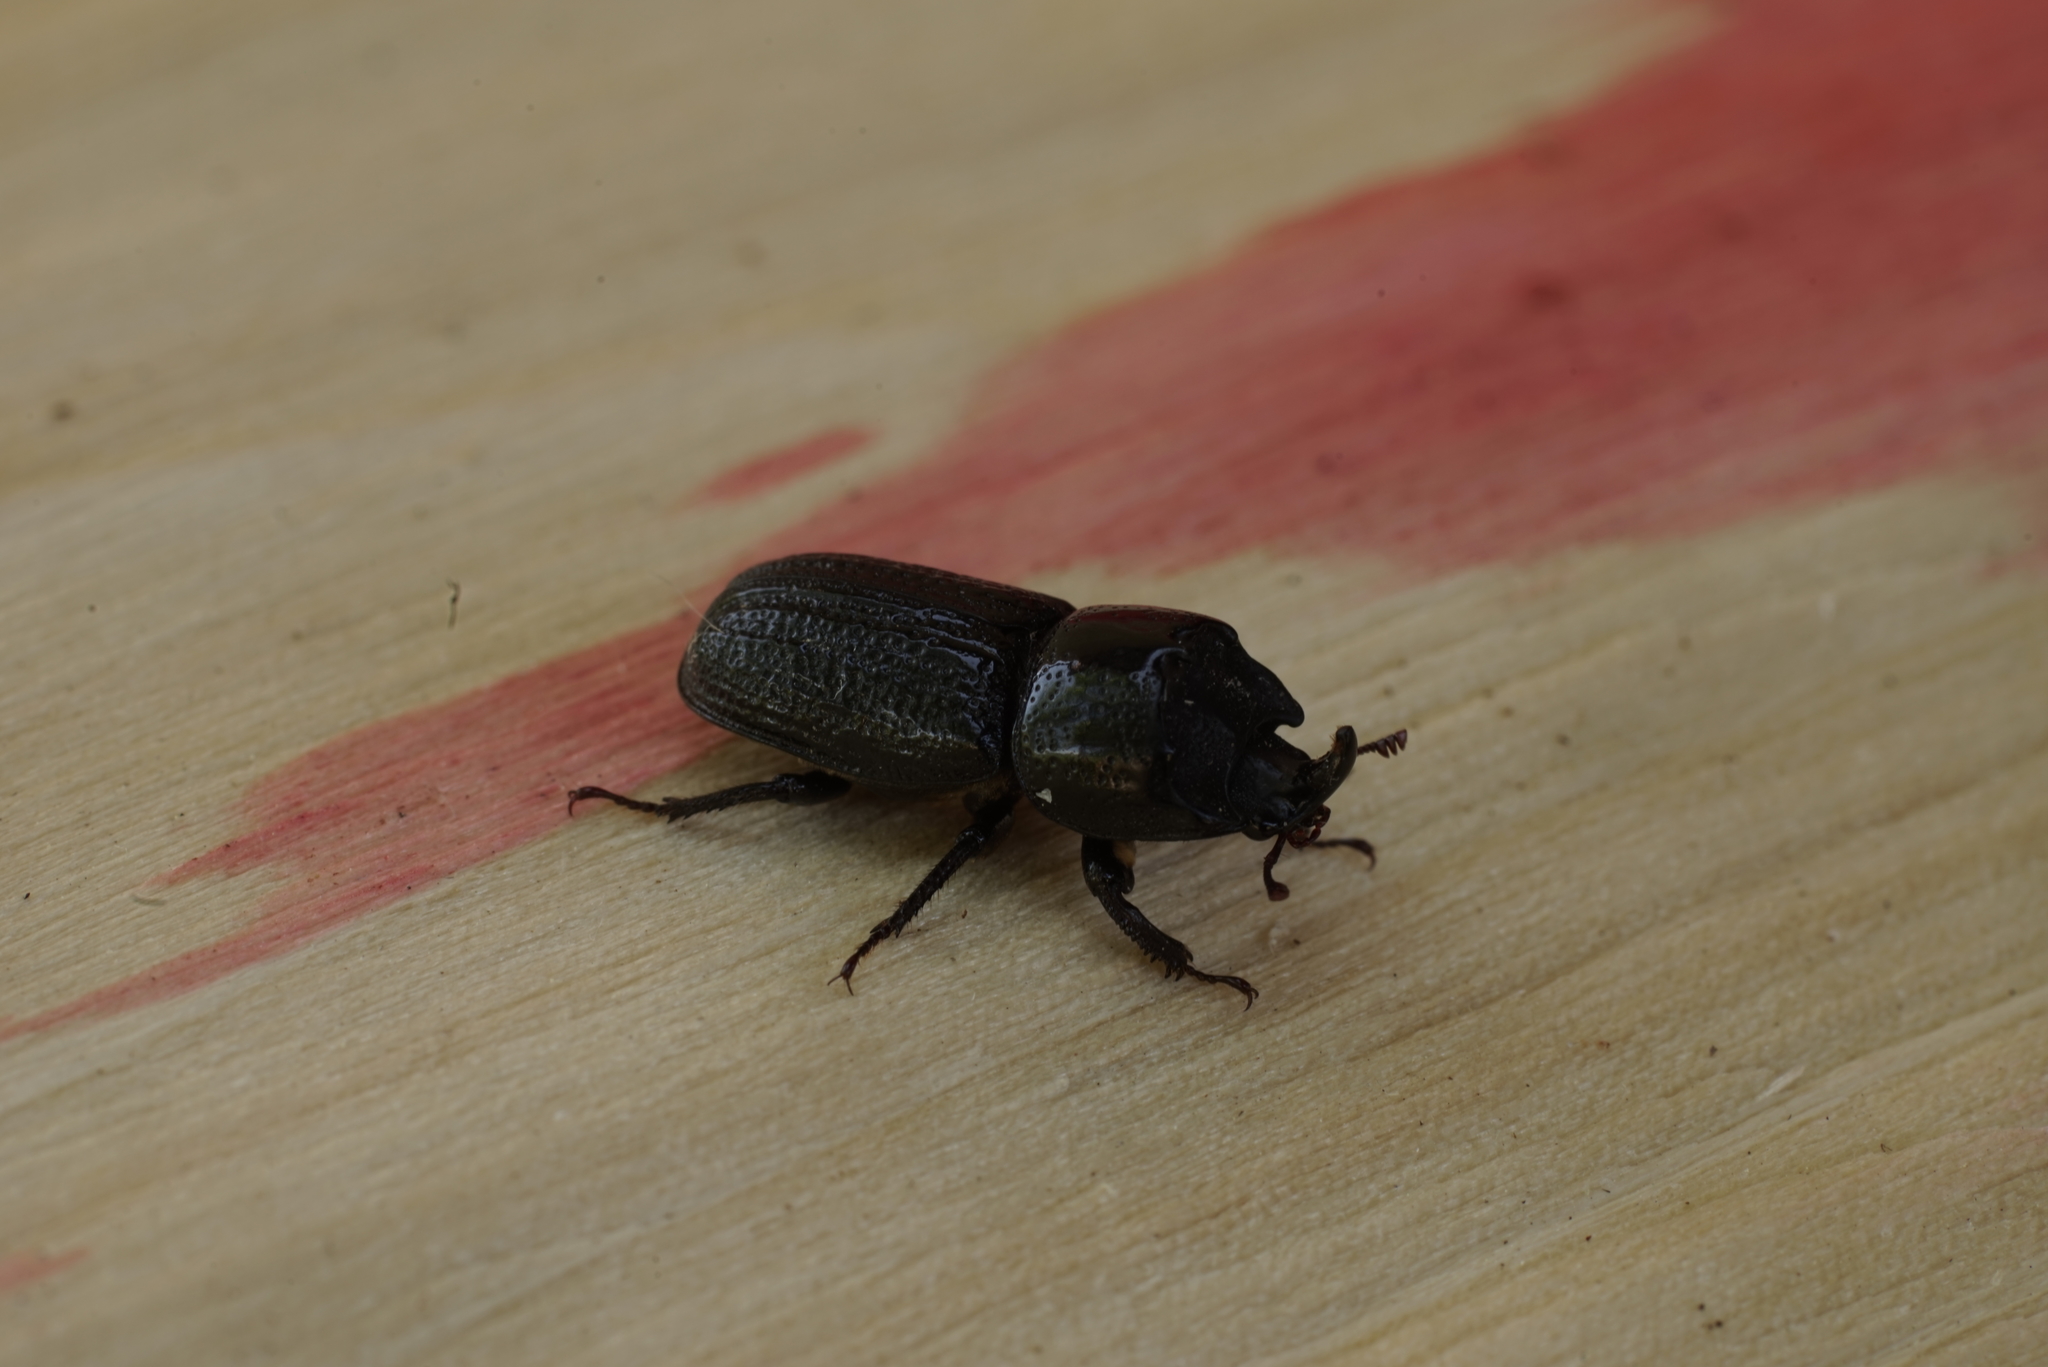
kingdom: Animalia
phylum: Arthropoda
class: Insecta
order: Coleoptera
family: Lucanidae
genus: Sinodendron
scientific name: Sinodendron cylindricum
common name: Rhinoceros beetle
